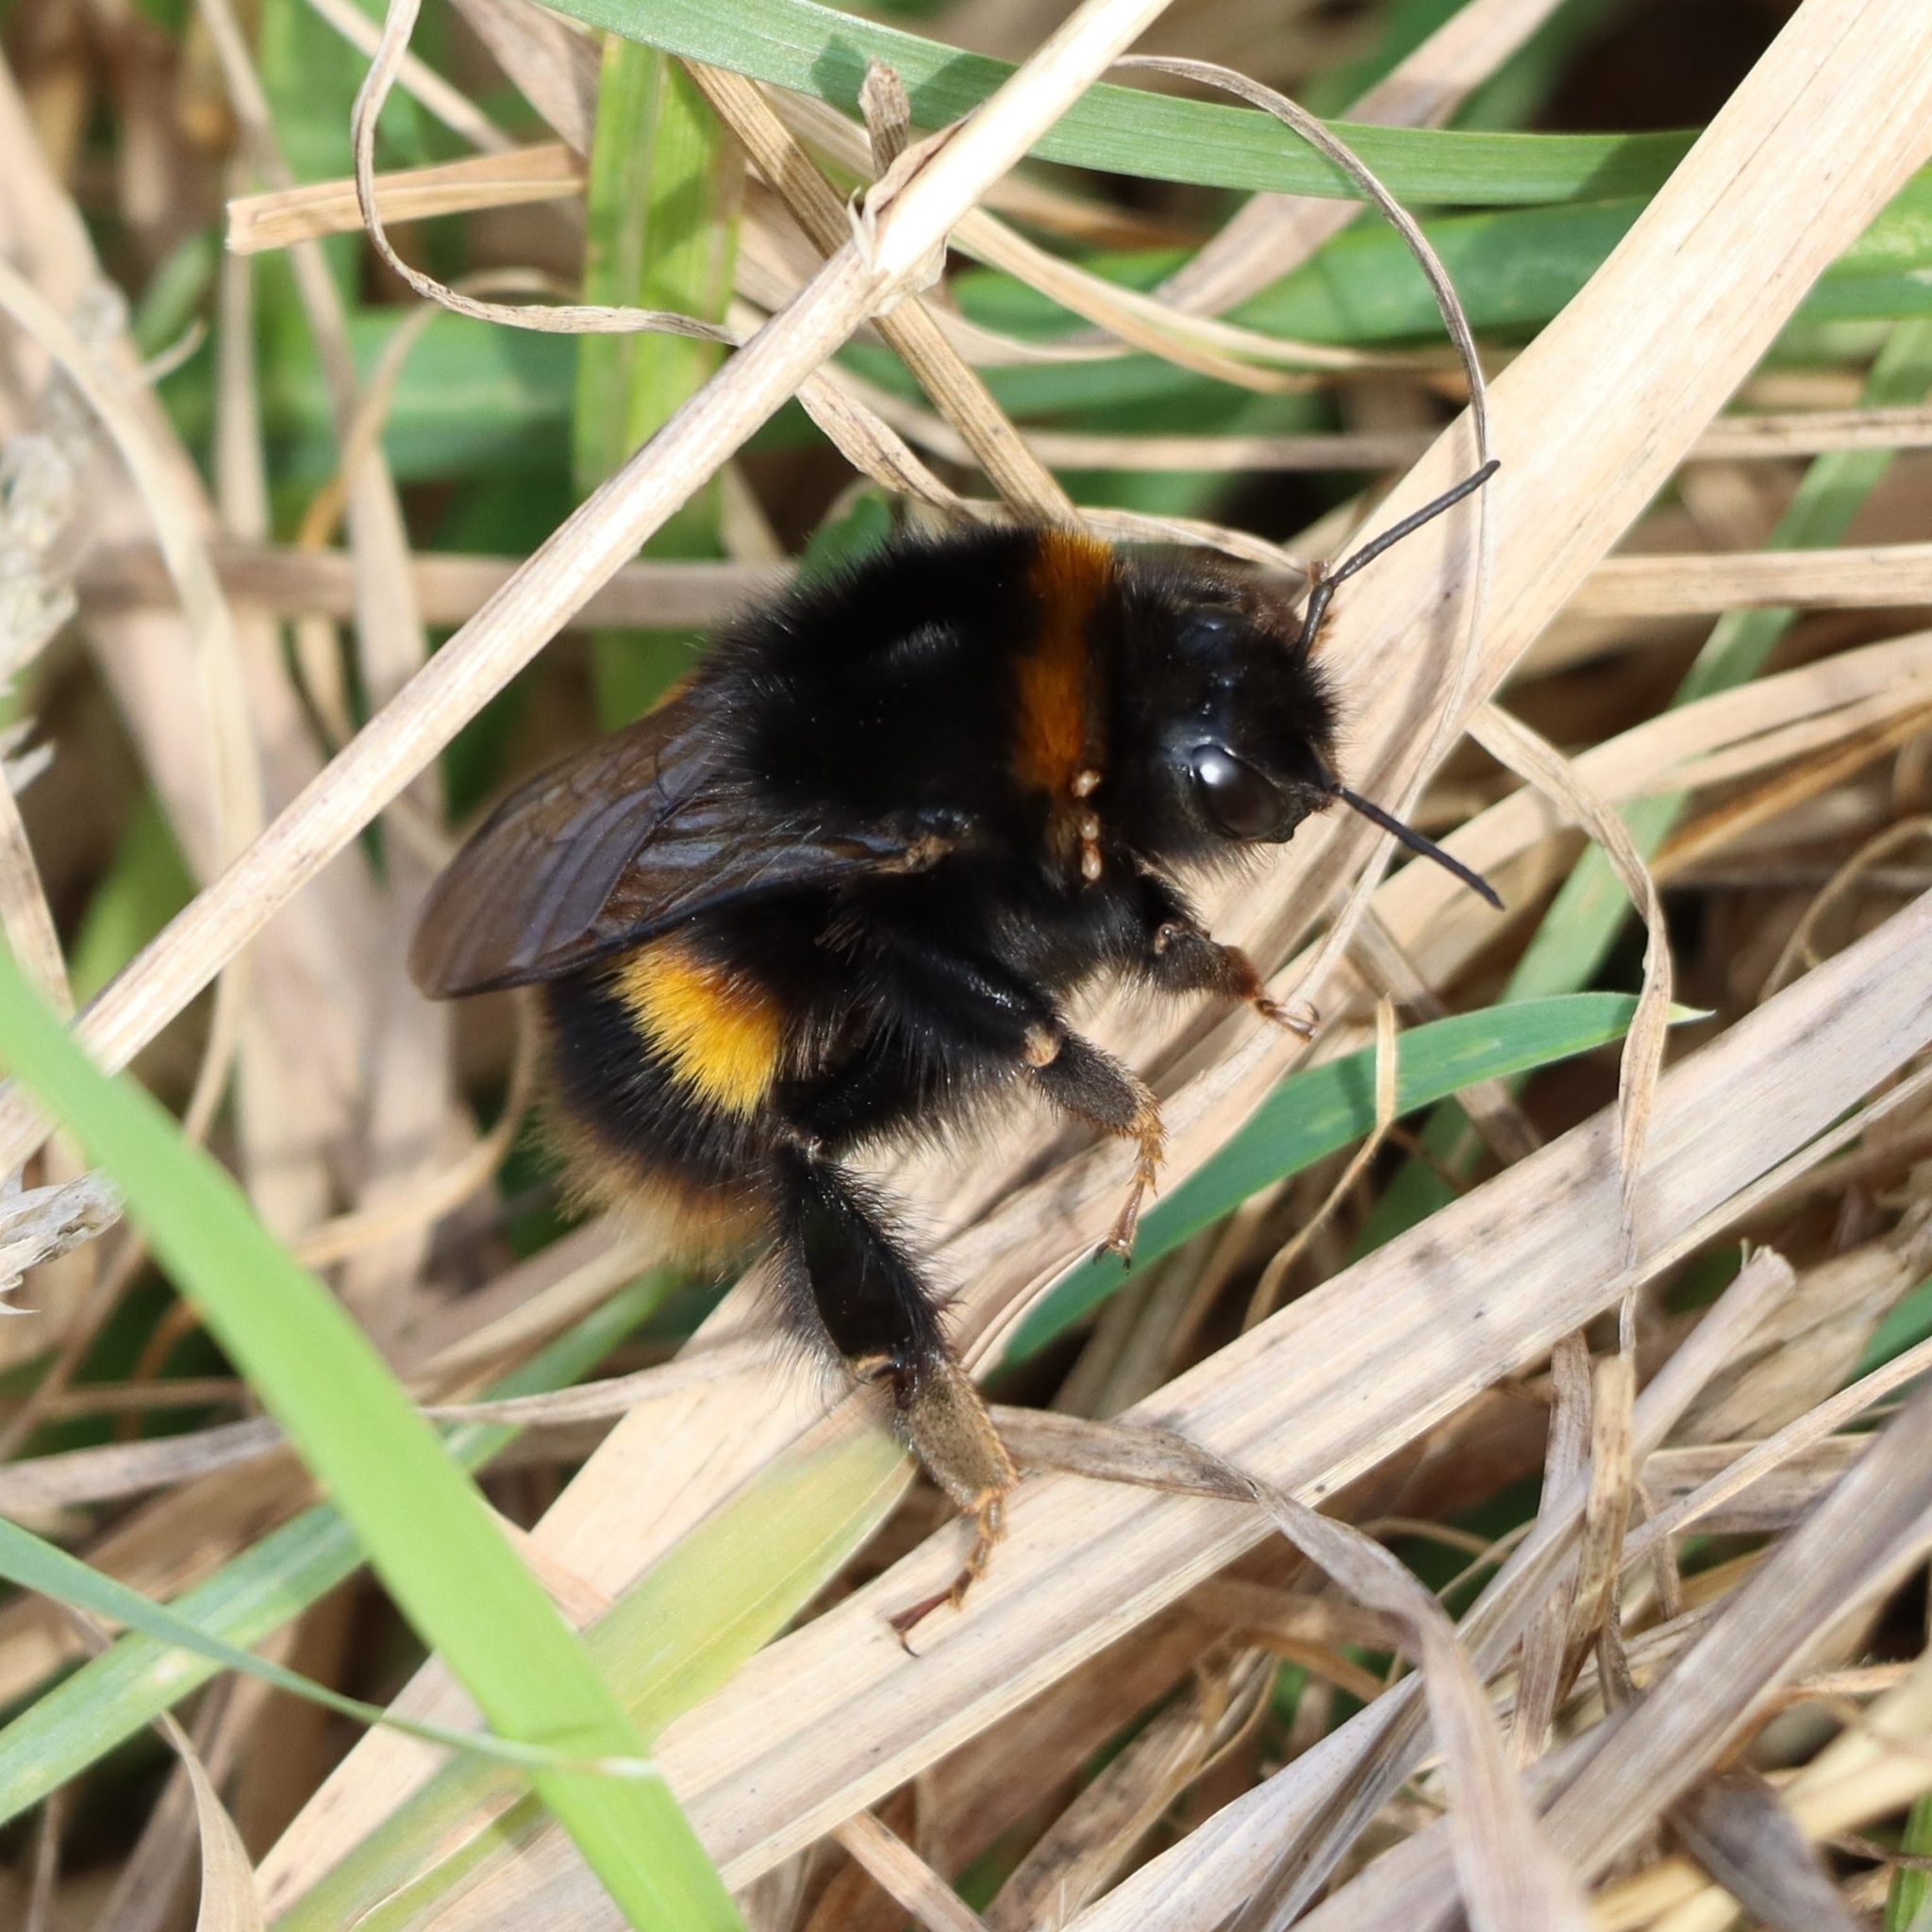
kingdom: Animalia
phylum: Arthropoda
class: Insecta
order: Hymenoptera
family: Apidae
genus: Bombus
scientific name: Bombus terrestris
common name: Buff-tailed bumblebee
